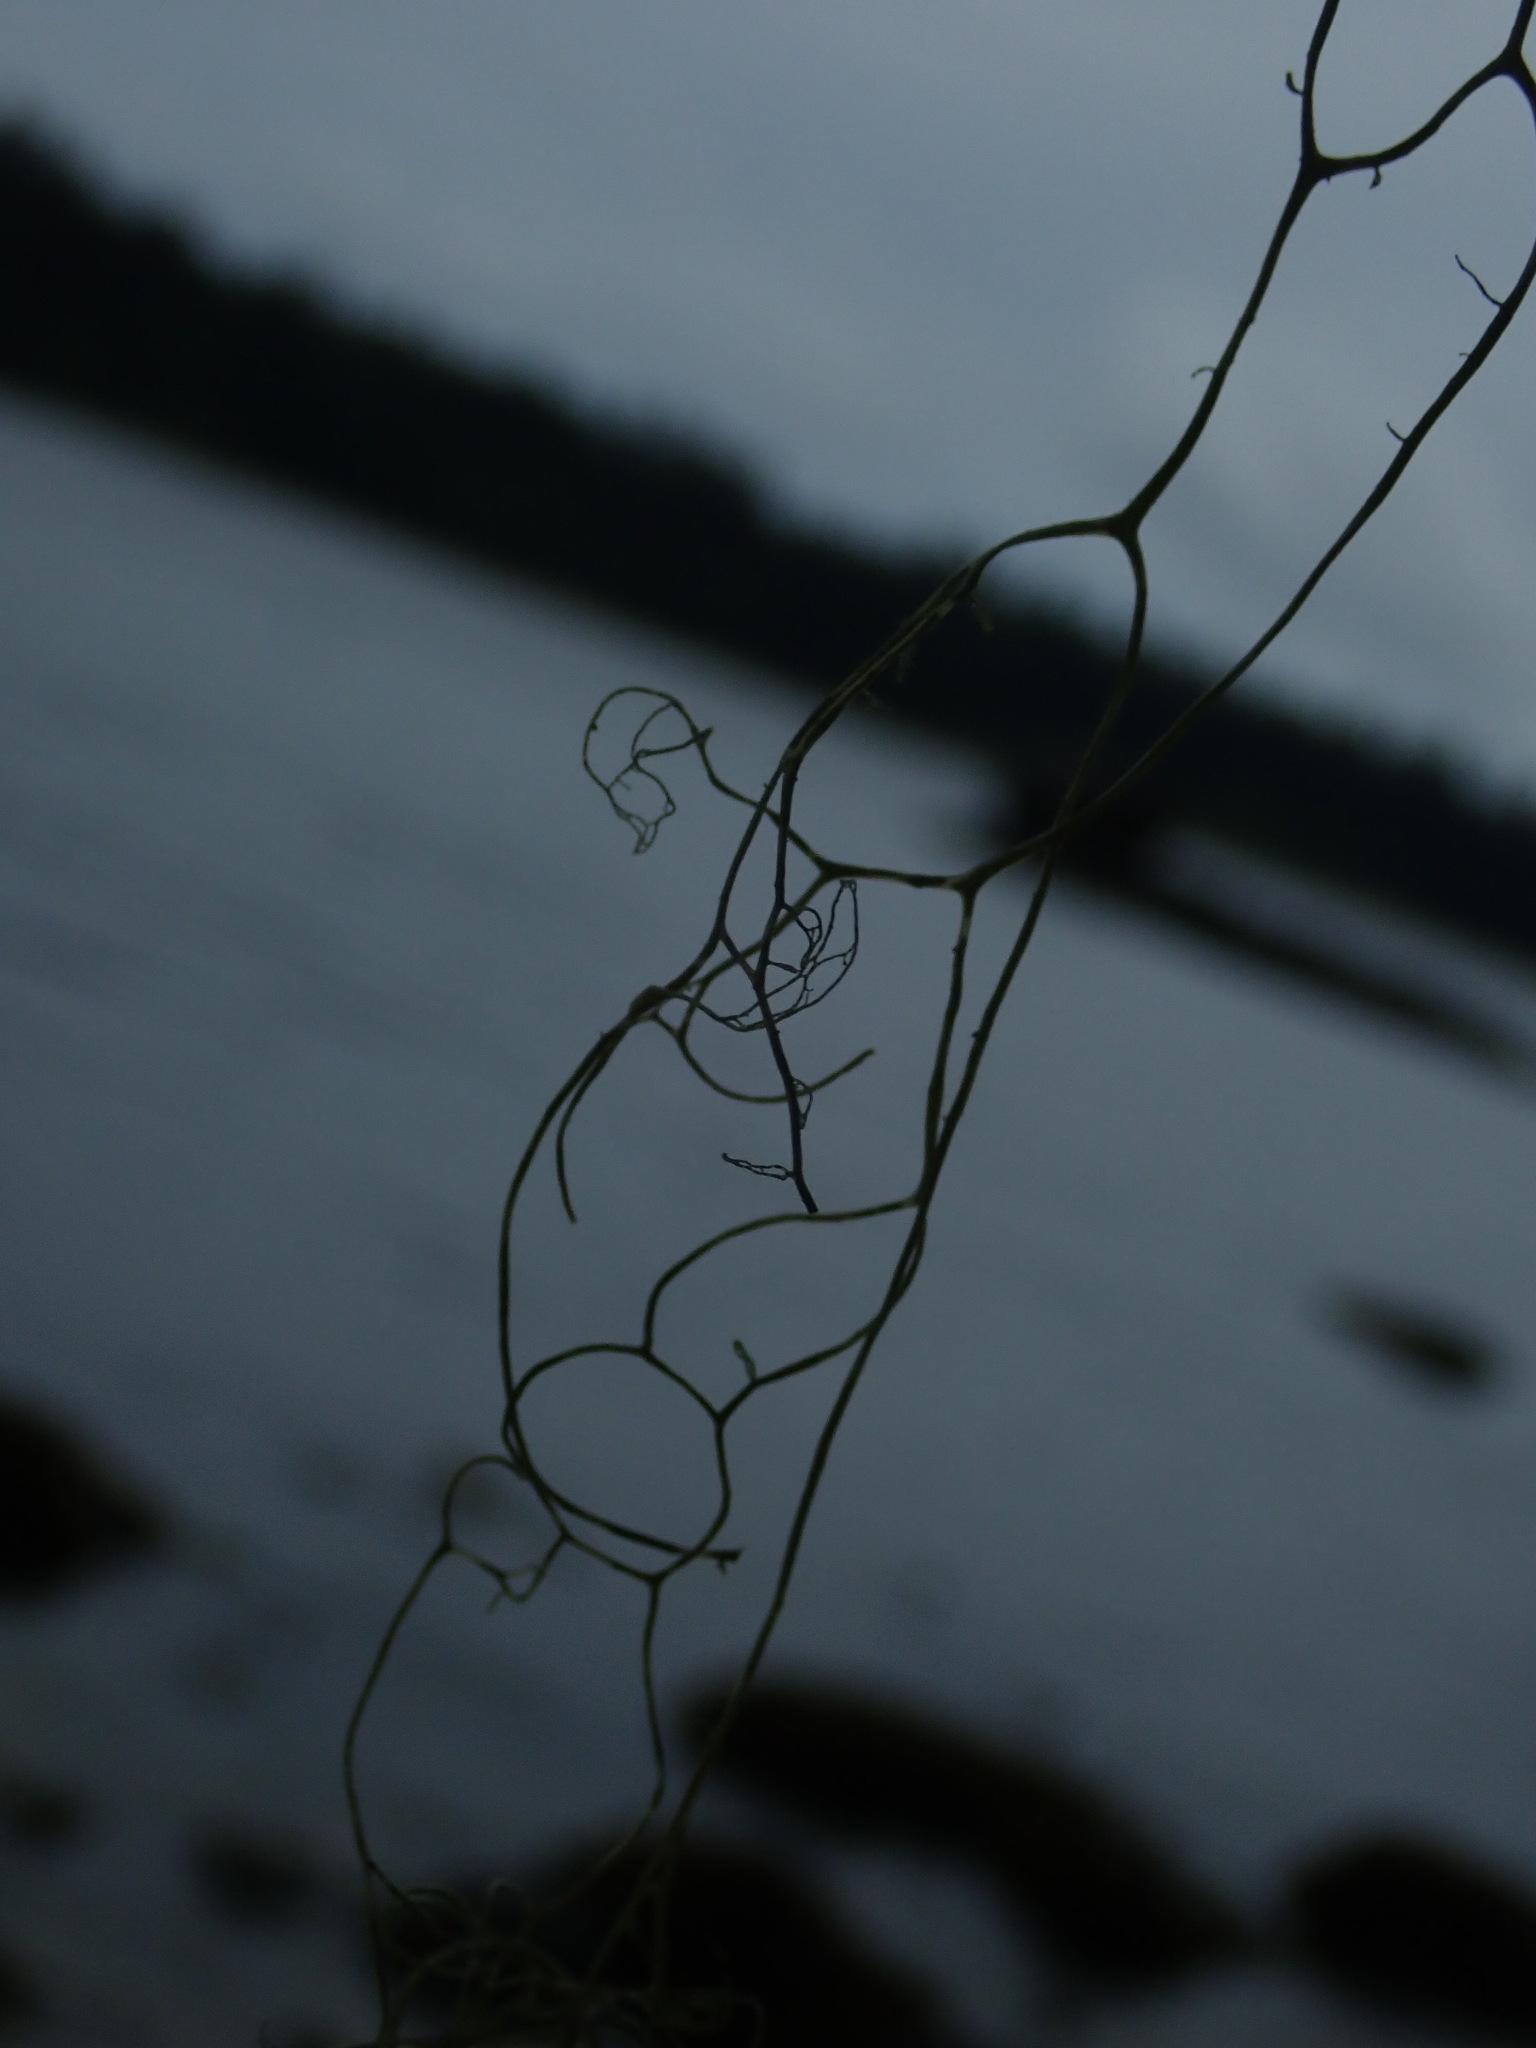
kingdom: Fungi
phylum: Ascomycota
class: Lecanoromycetes
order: Lecanorales
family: Ramalinaceae
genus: Ramalina
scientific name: Ramalina menziesii
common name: Lace lichen
